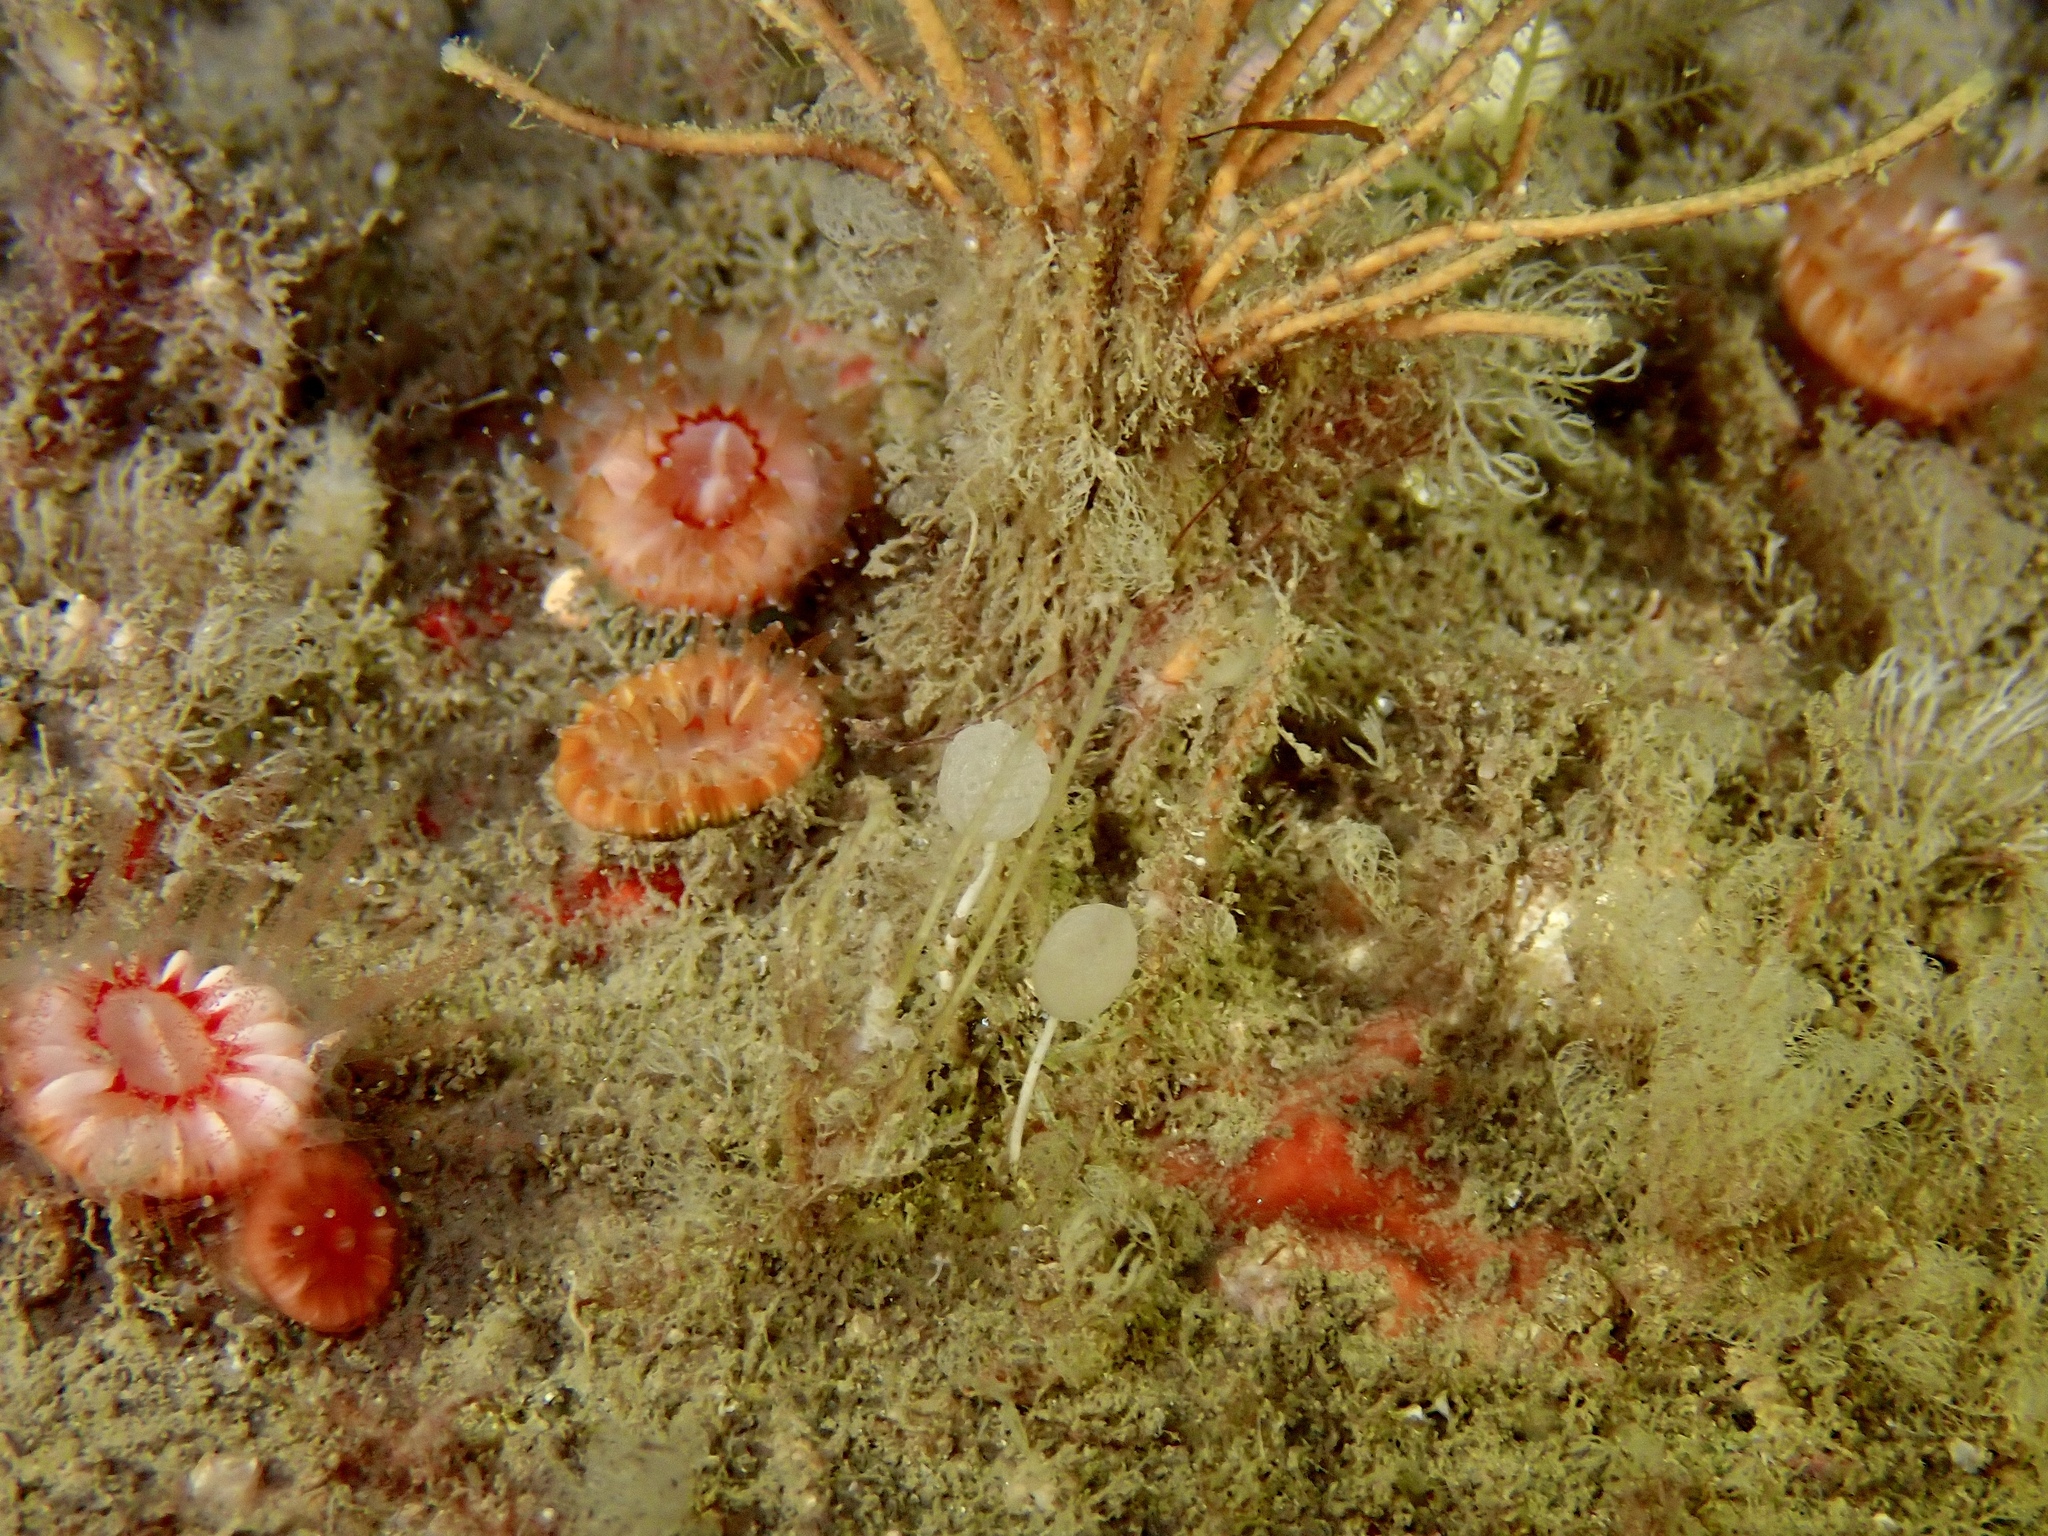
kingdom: Animalia
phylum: Porifera
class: Calcarea
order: Clathrinida
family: Clathrinidae
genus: Clathrina
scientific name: Clathrina lacunosa
